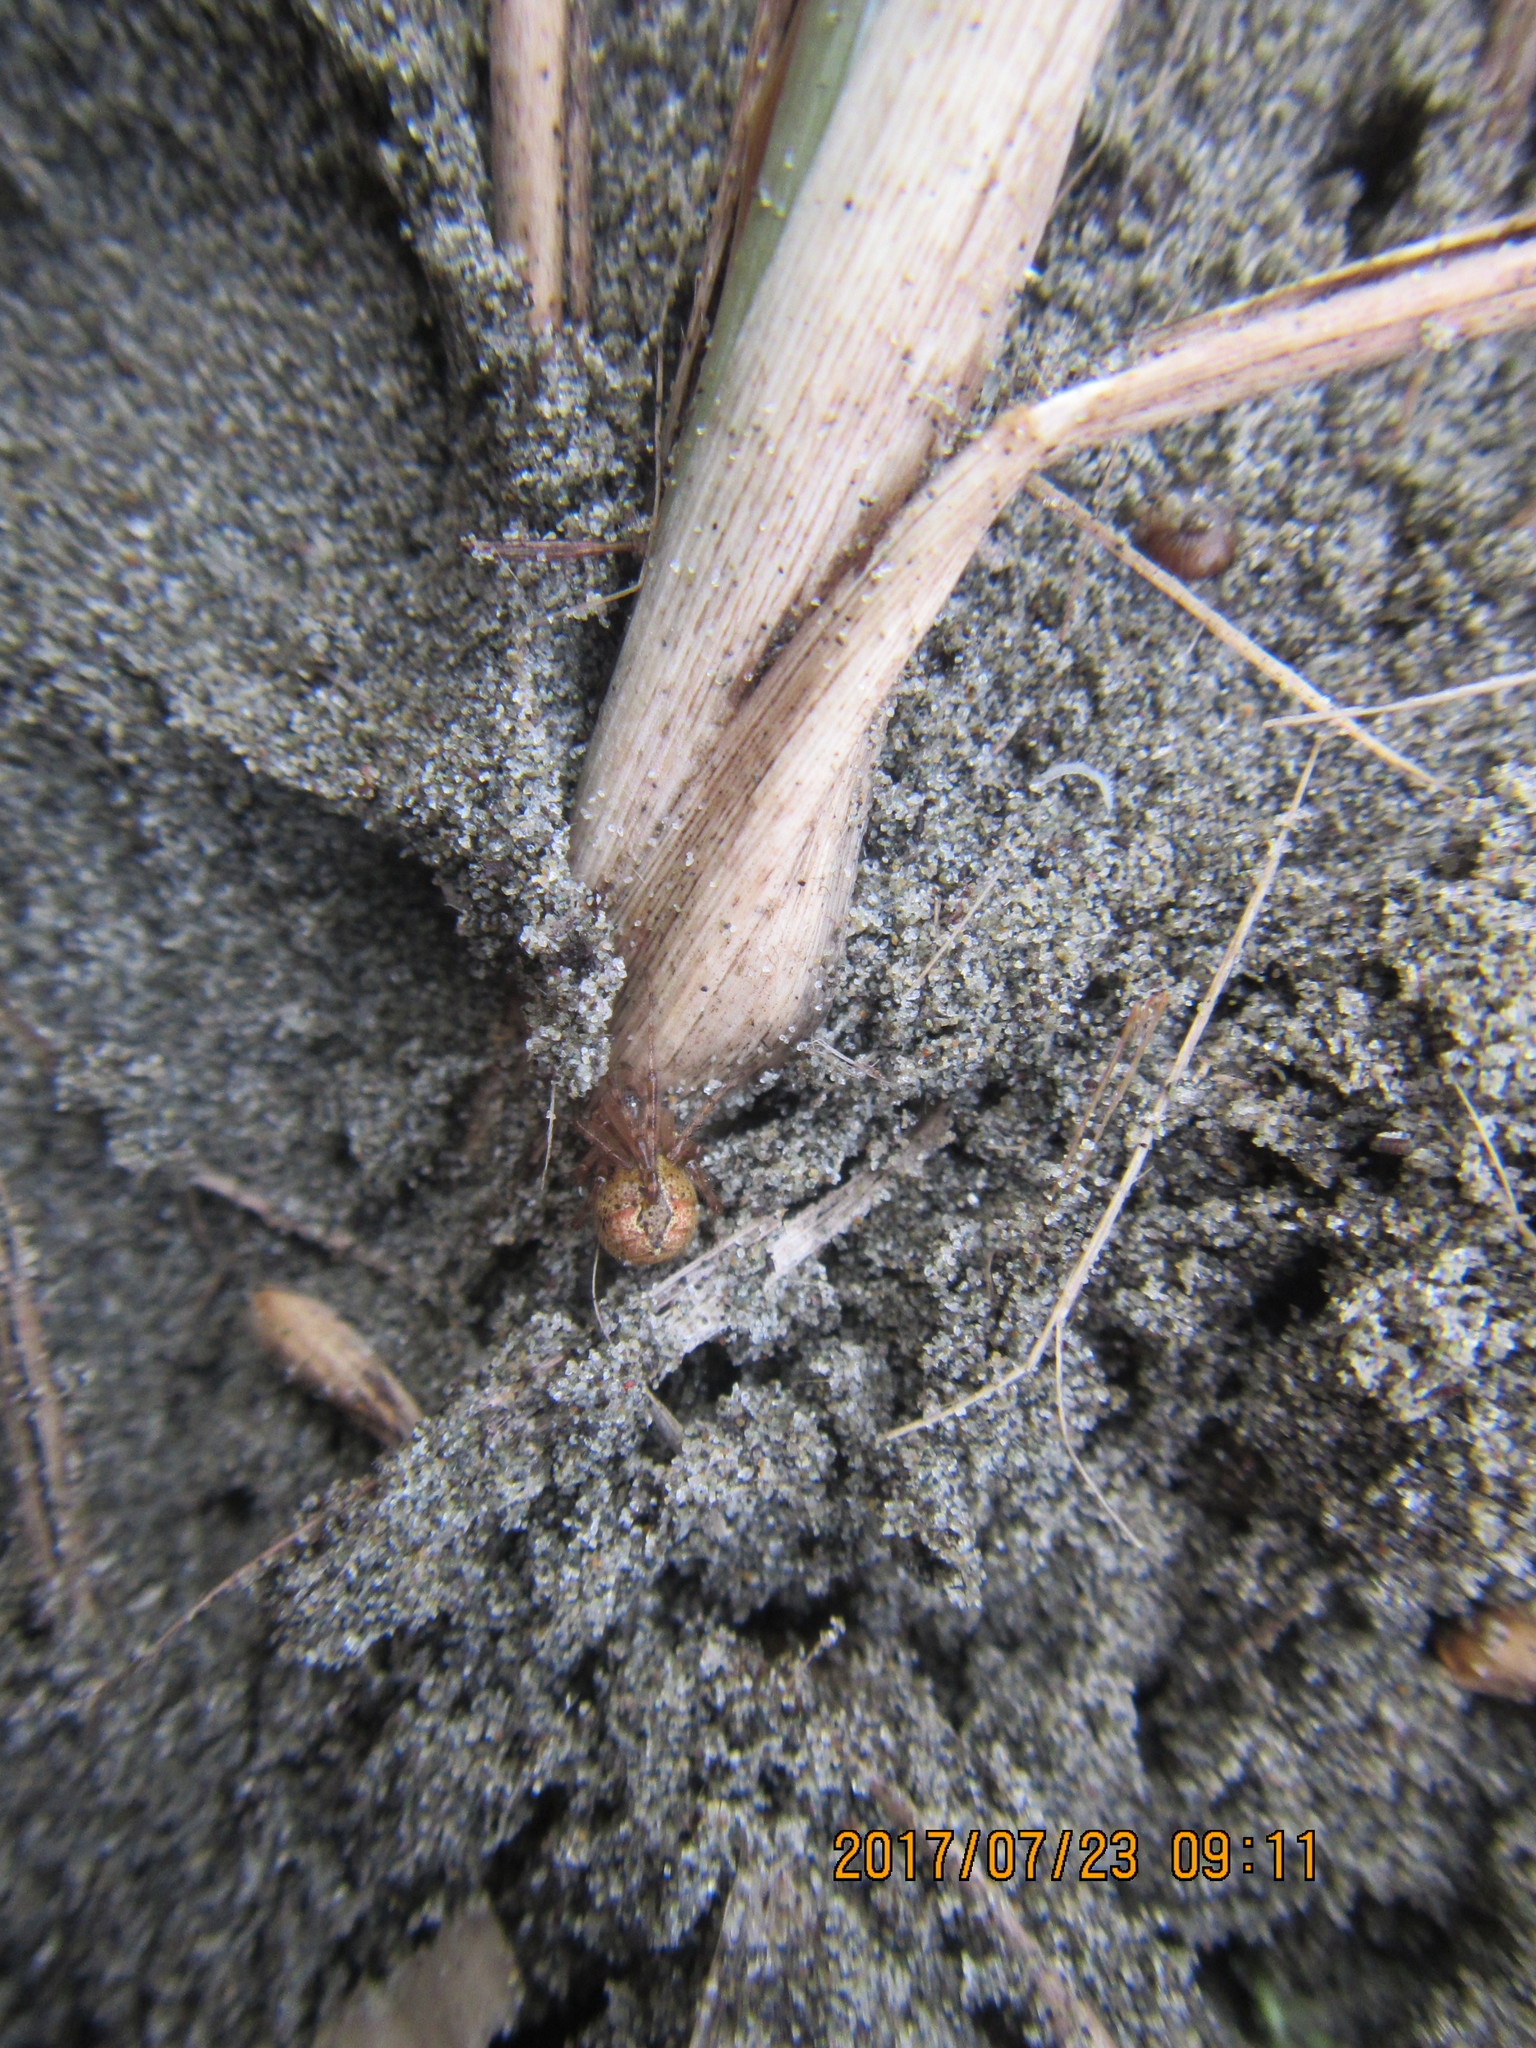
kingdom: Animalia
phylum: Arthropoda
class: Arachnida
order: Araneae
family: Theridiidae
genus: Cryptachaea
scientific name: Cryptachaea veruculata
